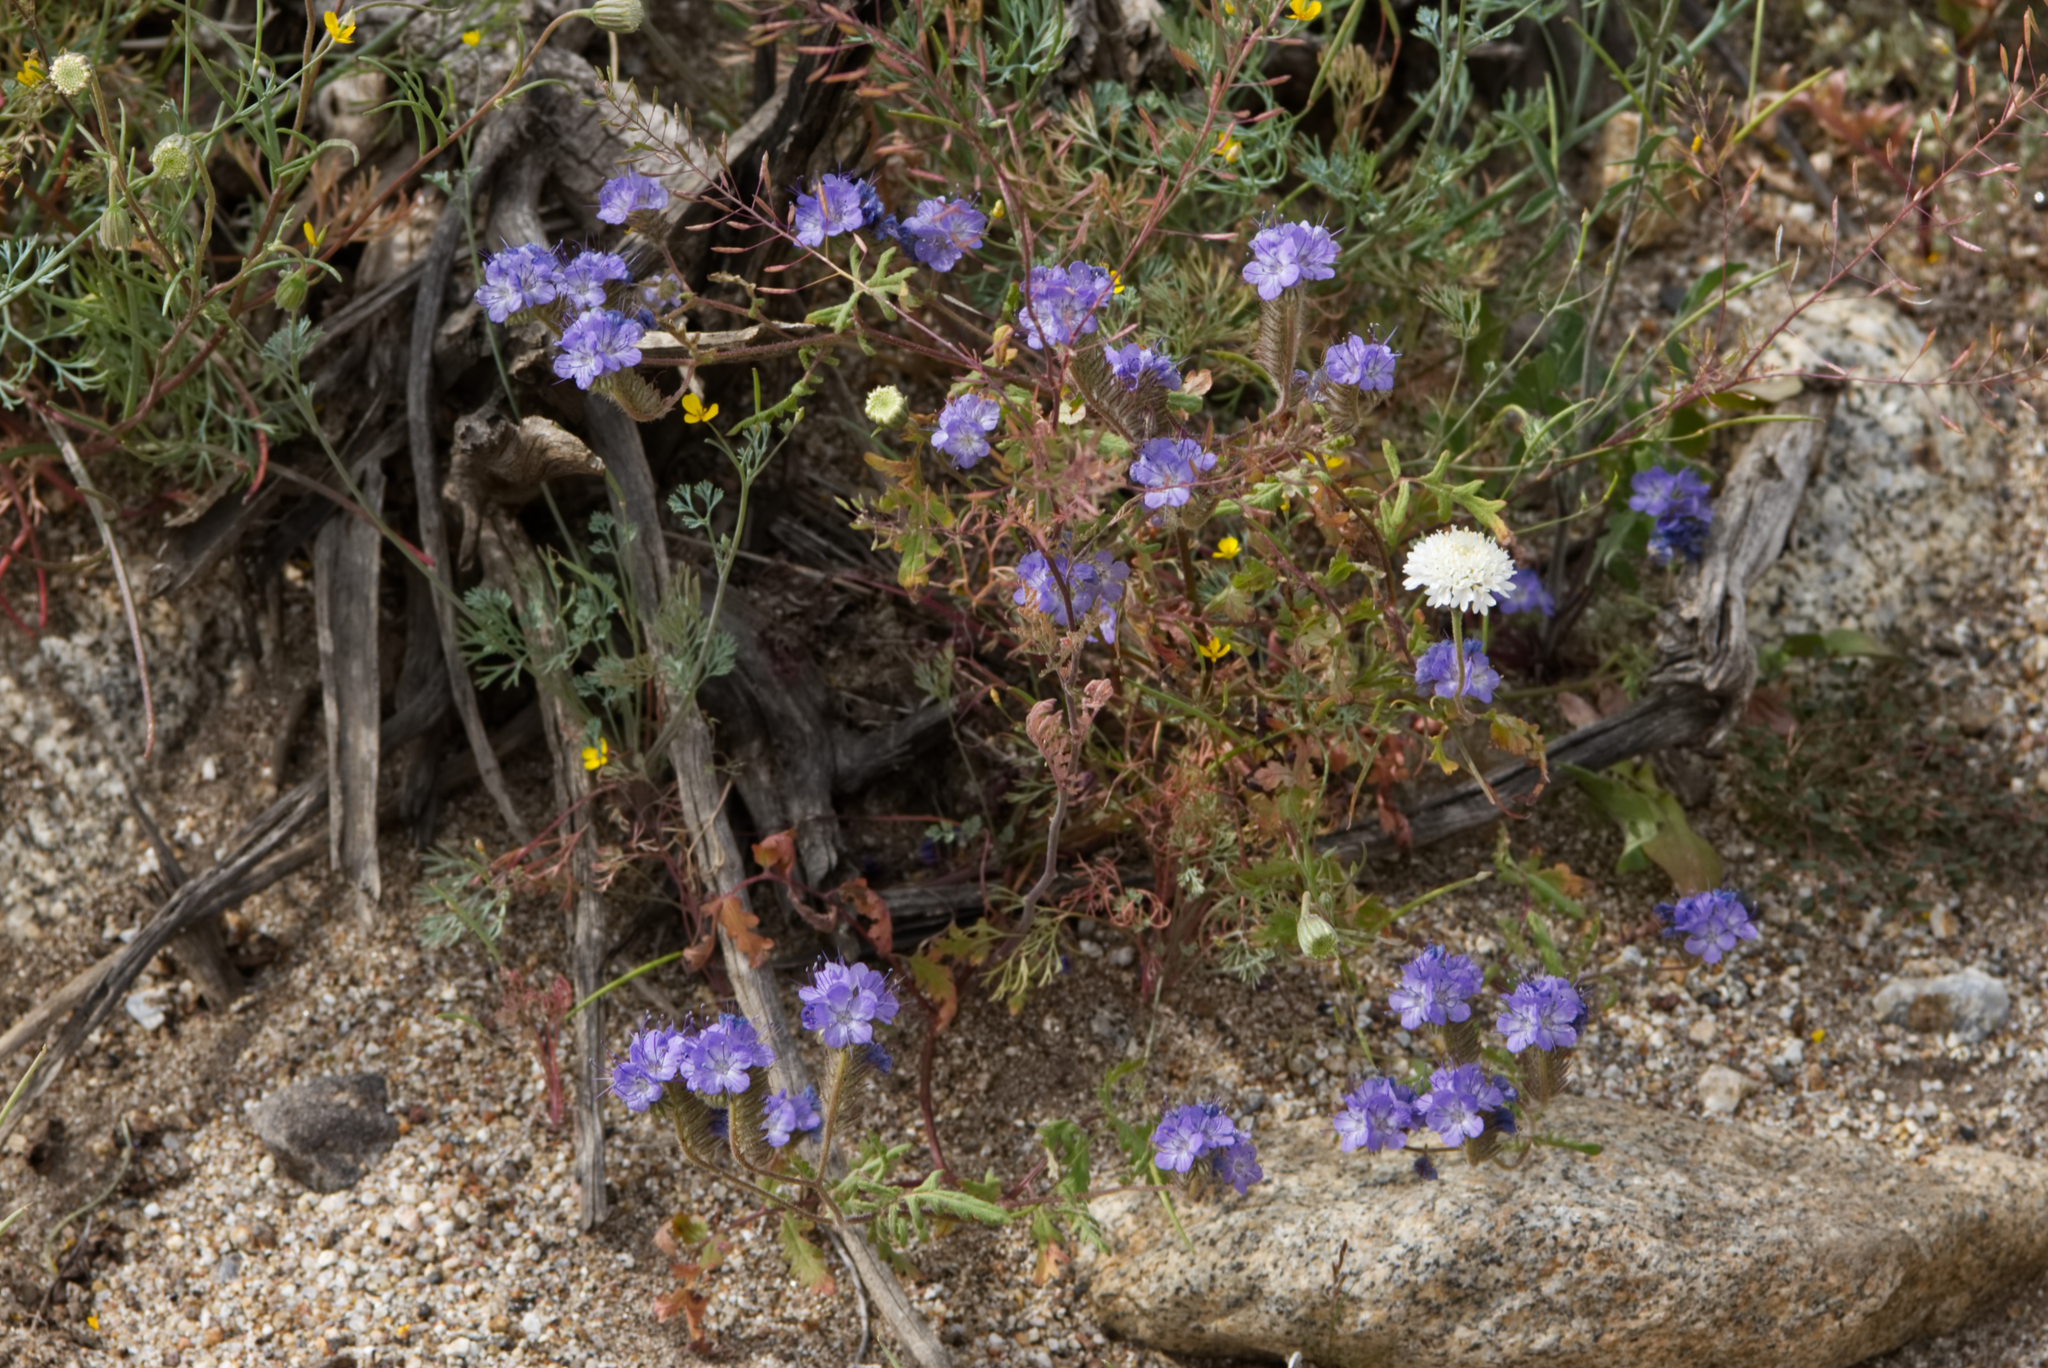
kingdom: Plantae
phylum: Tracheophyta
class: Magnoliopsida
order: Boraginales
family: Hydrophyllaceae
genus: Phacelia
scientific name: Phacelia distans
